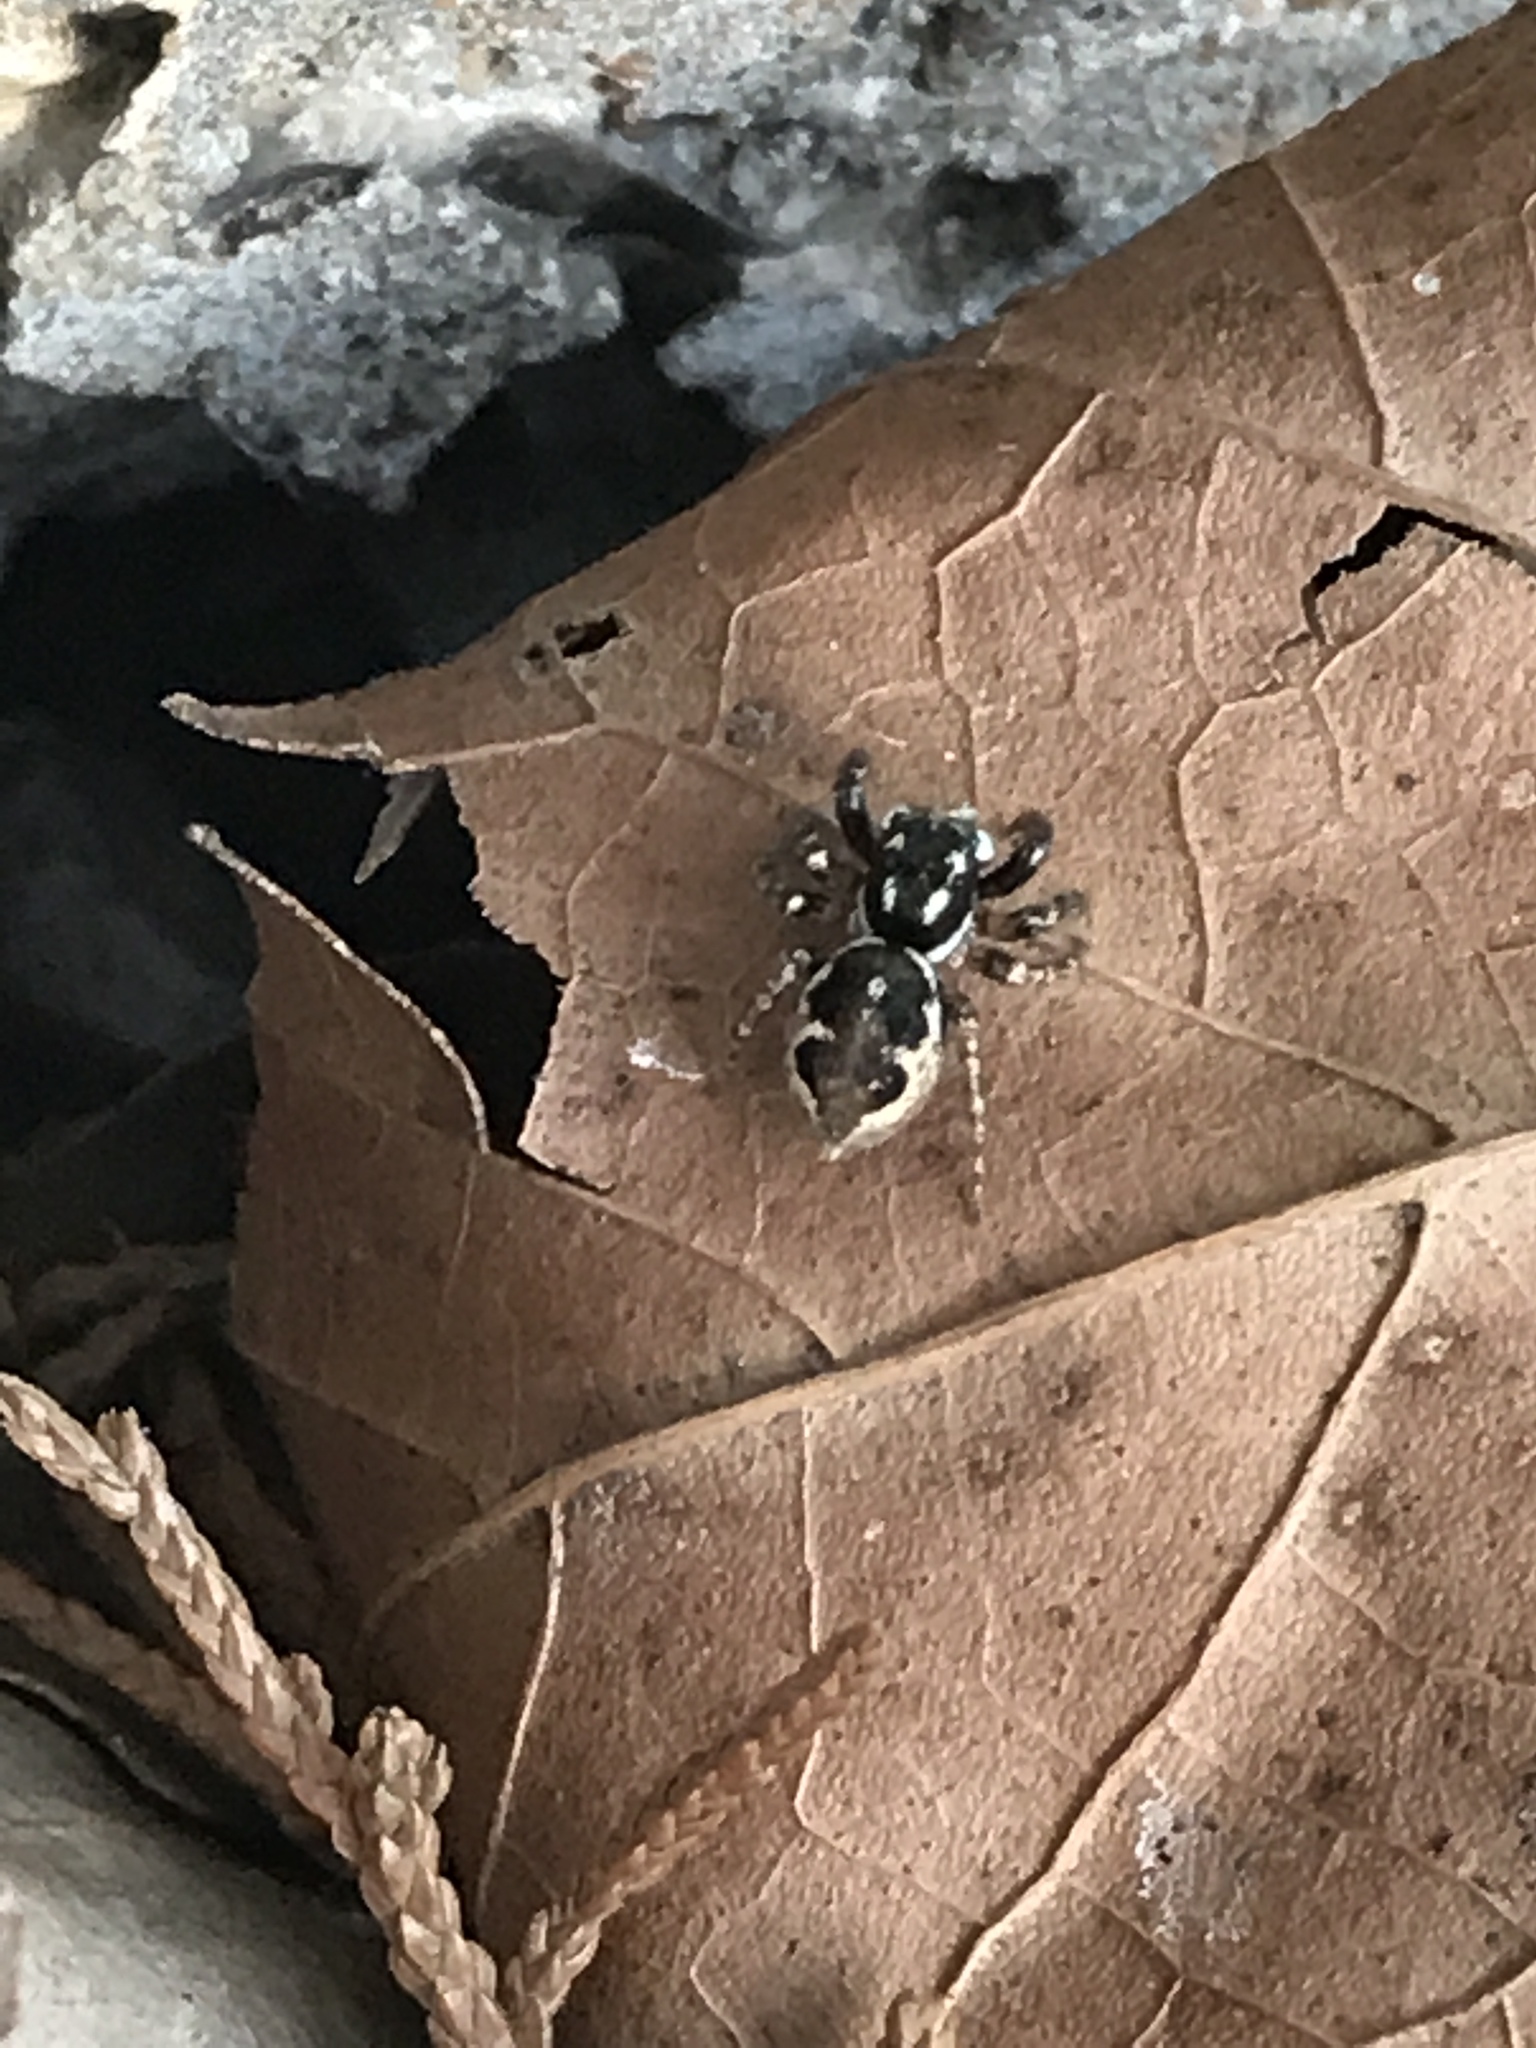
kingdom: Animalia
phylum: Arthropoda
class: Arachnida
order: Araneae
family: Salticidae
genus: Anasaitis
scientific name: Anasaitis canosa
